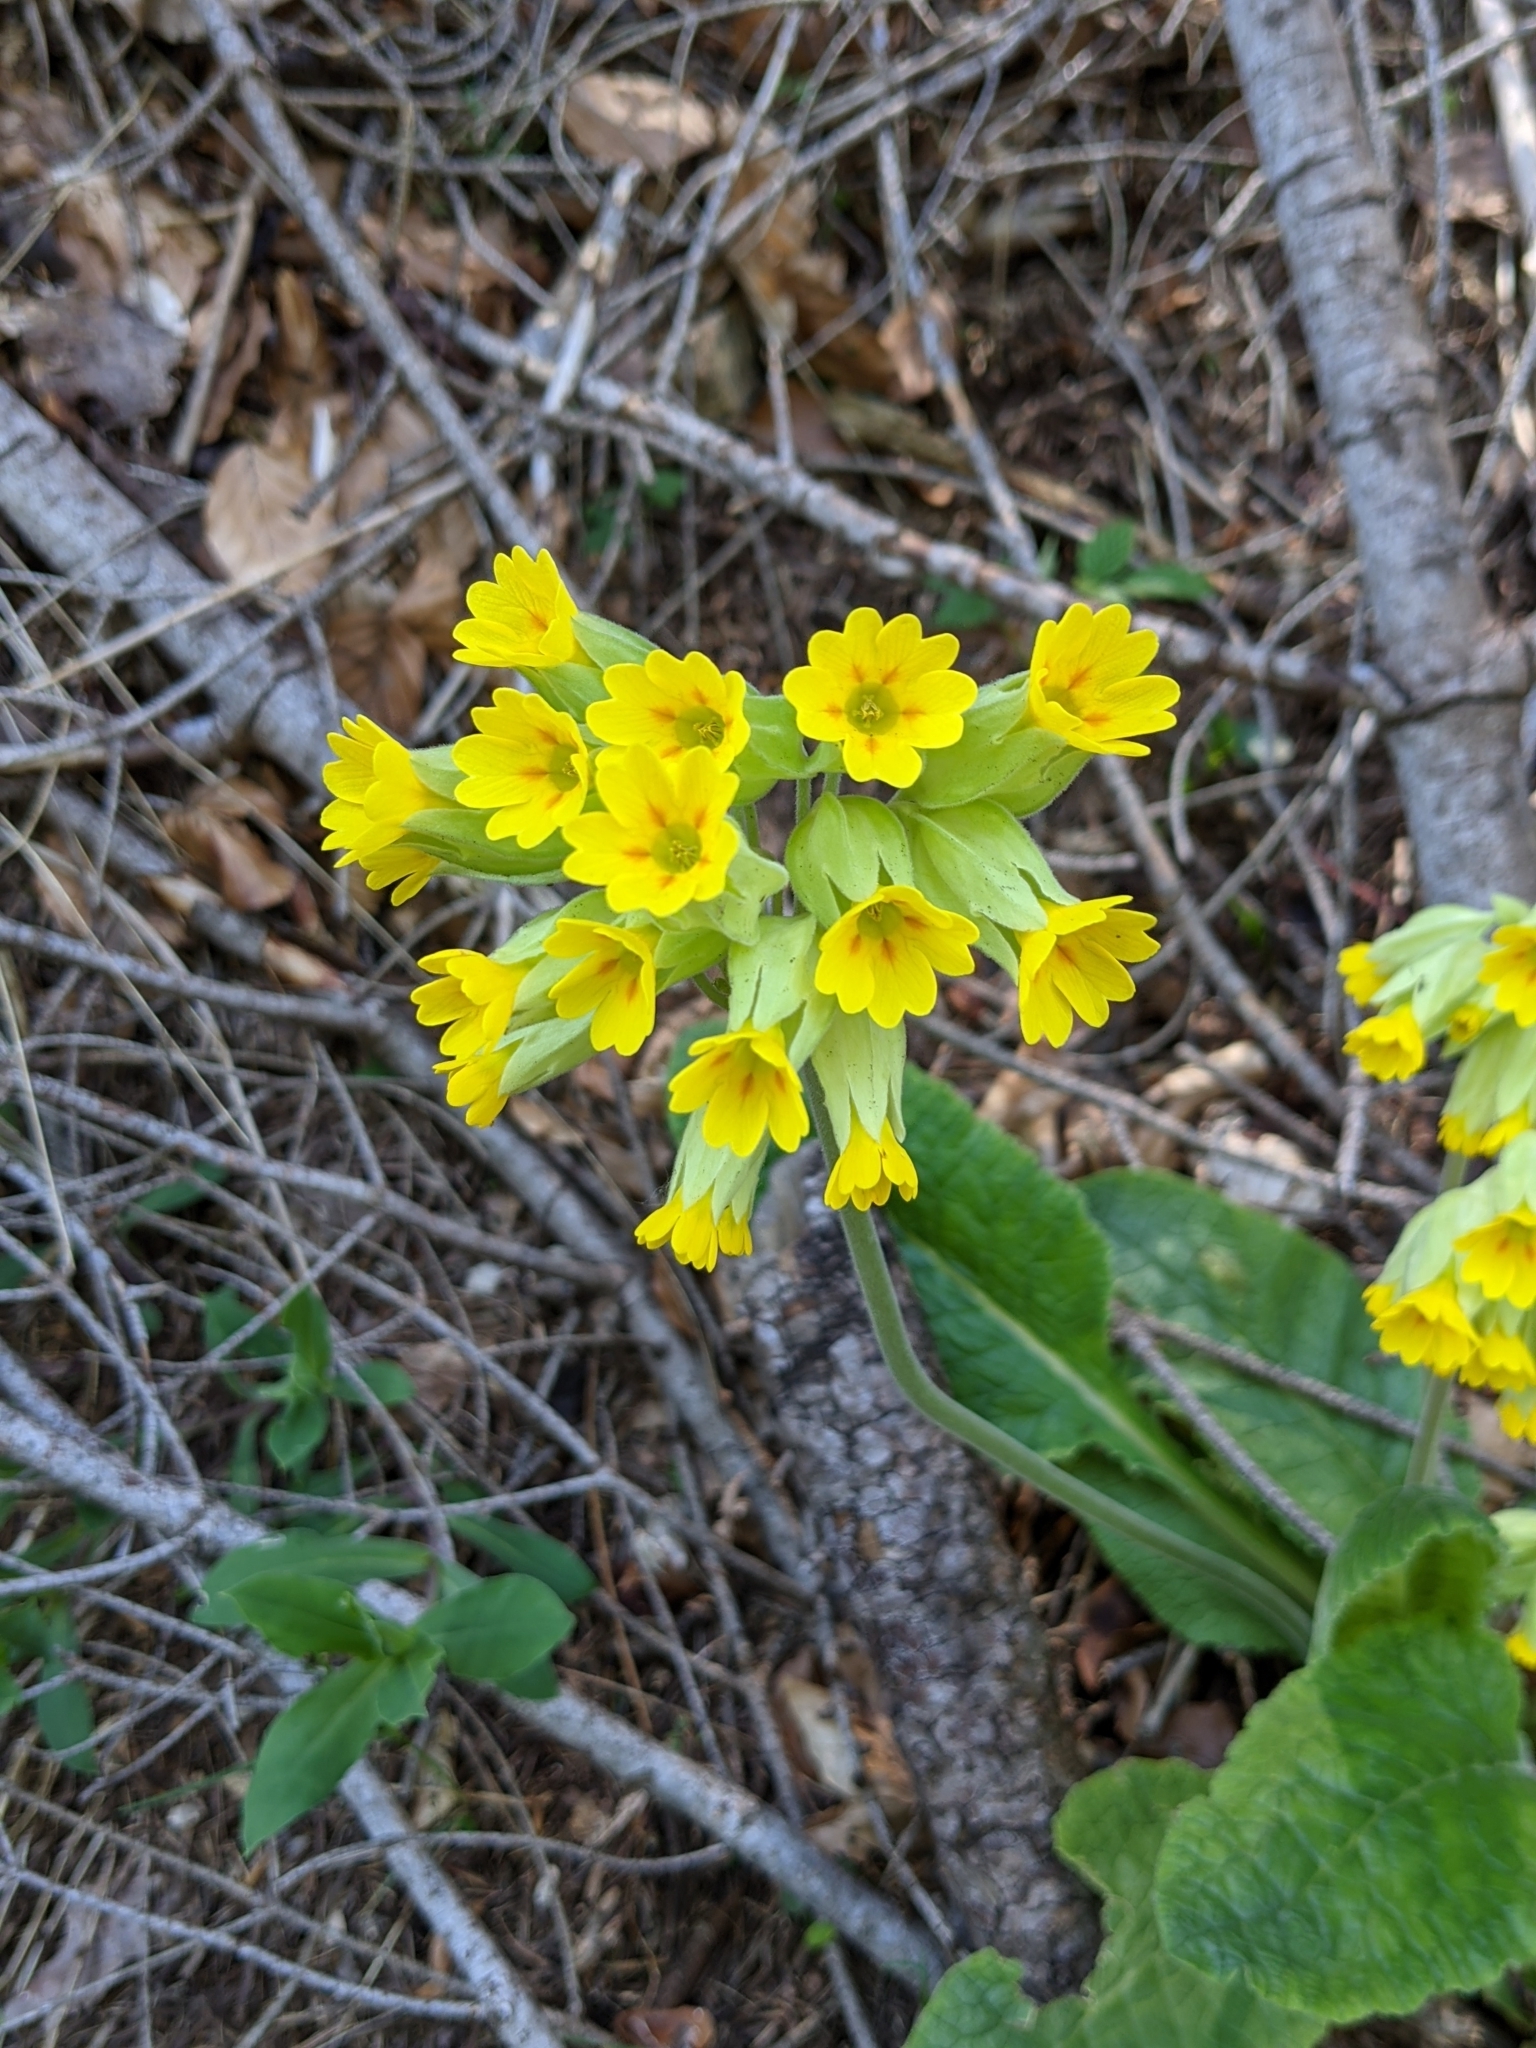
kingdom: Plantae
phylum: Tracheophyta
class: Magnoliopsida
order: Ericales
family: Primulaceae
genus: Primula
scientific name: Primula veris
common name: Cowslip
